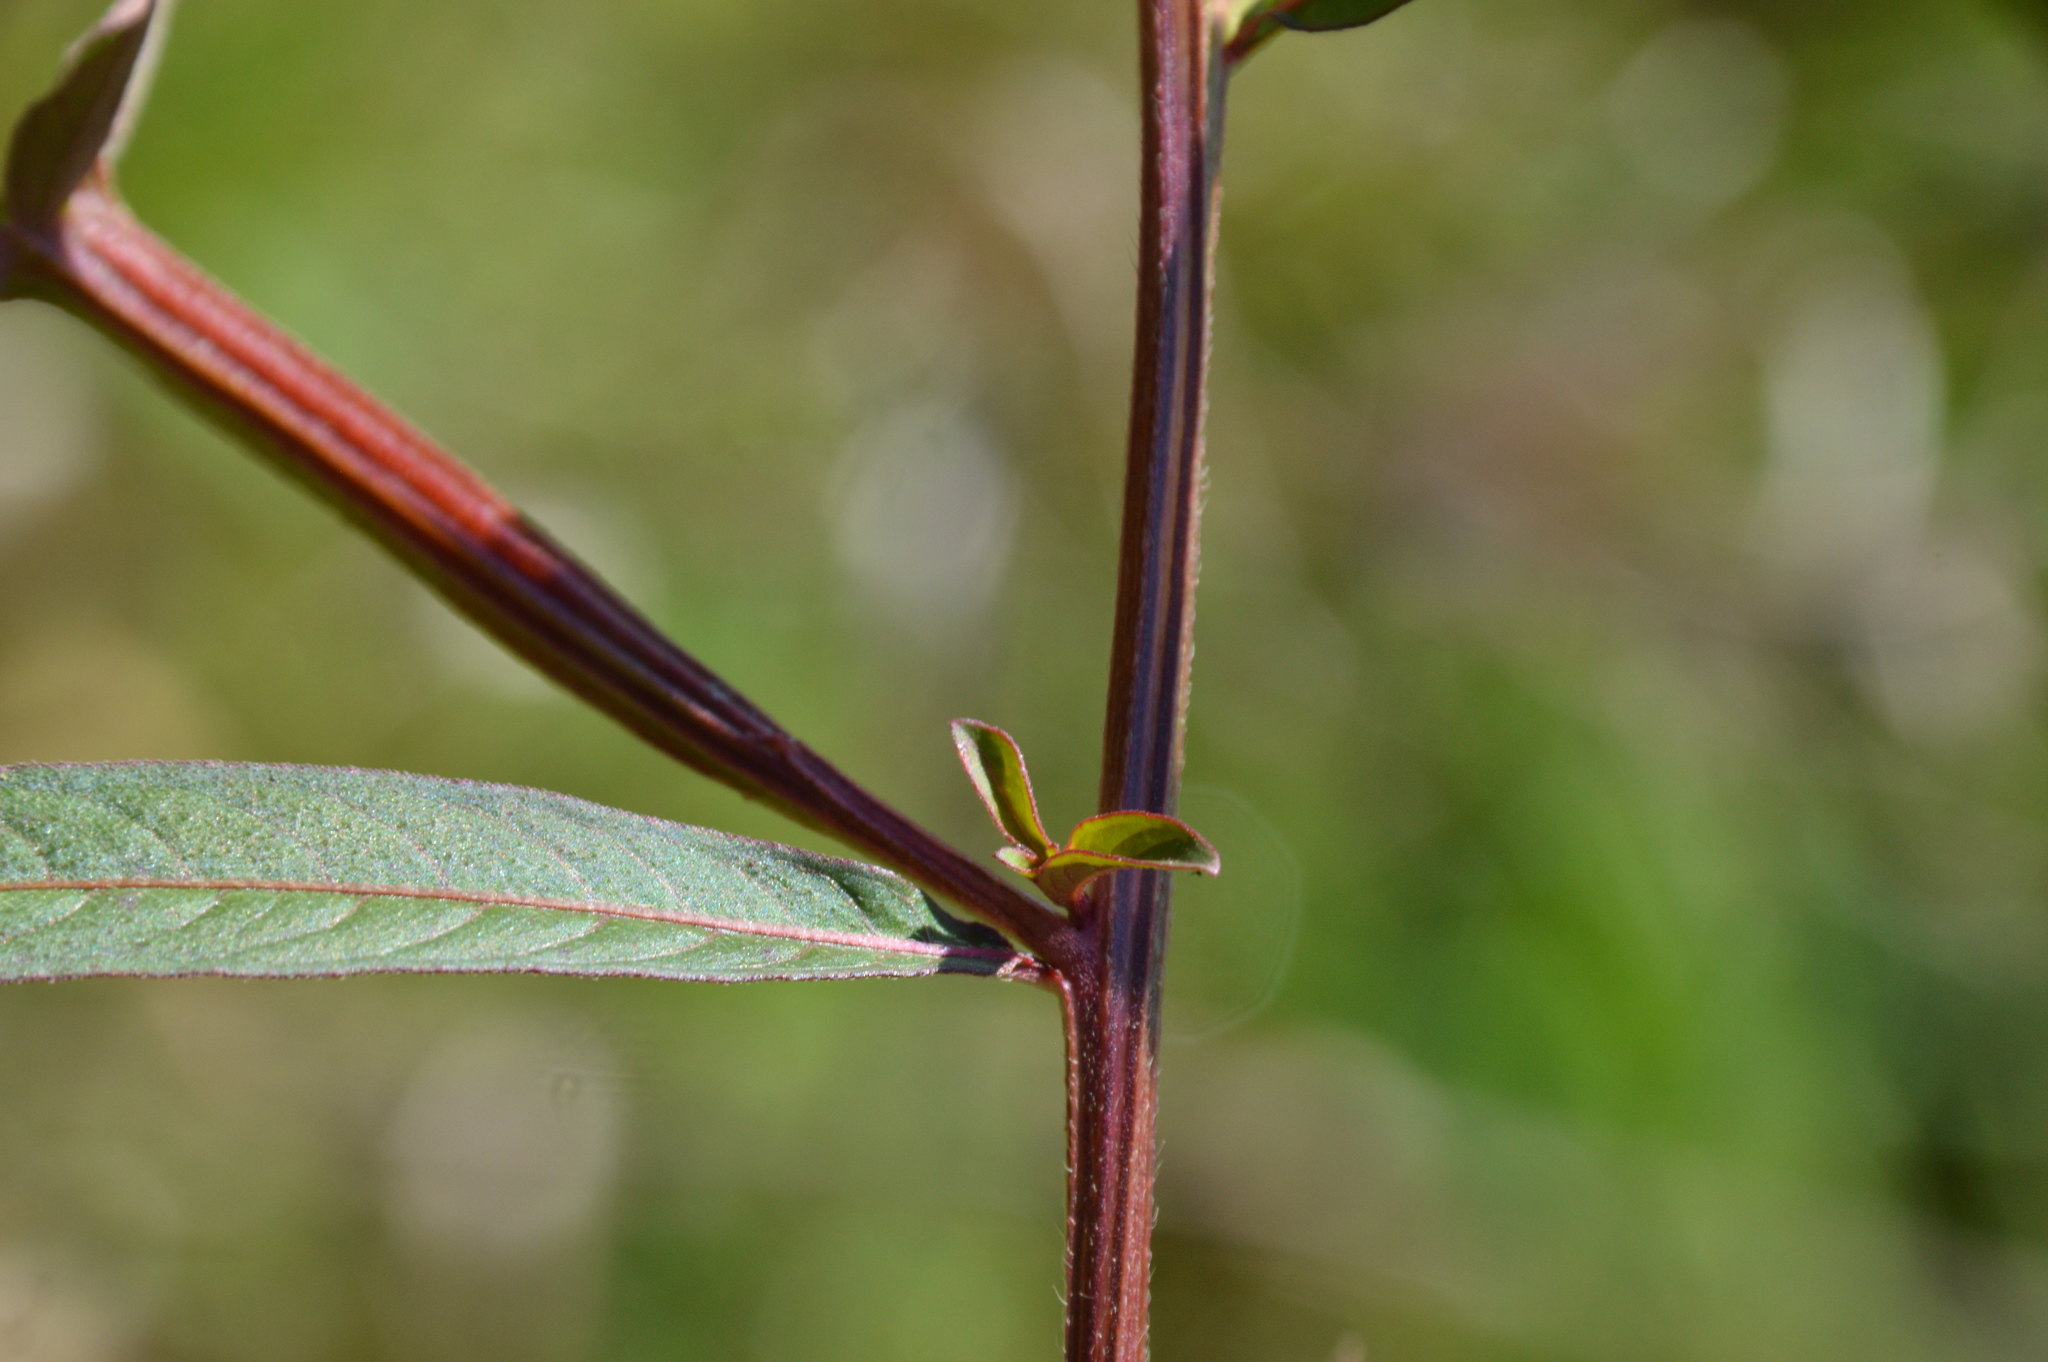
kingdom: Plantae
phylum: Tracheophyta
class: Magnoliopsida
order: Myrtales
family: Onagraceae
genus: Ludwigia
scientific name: Ludwigia octovalvis
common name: Water-primrose
